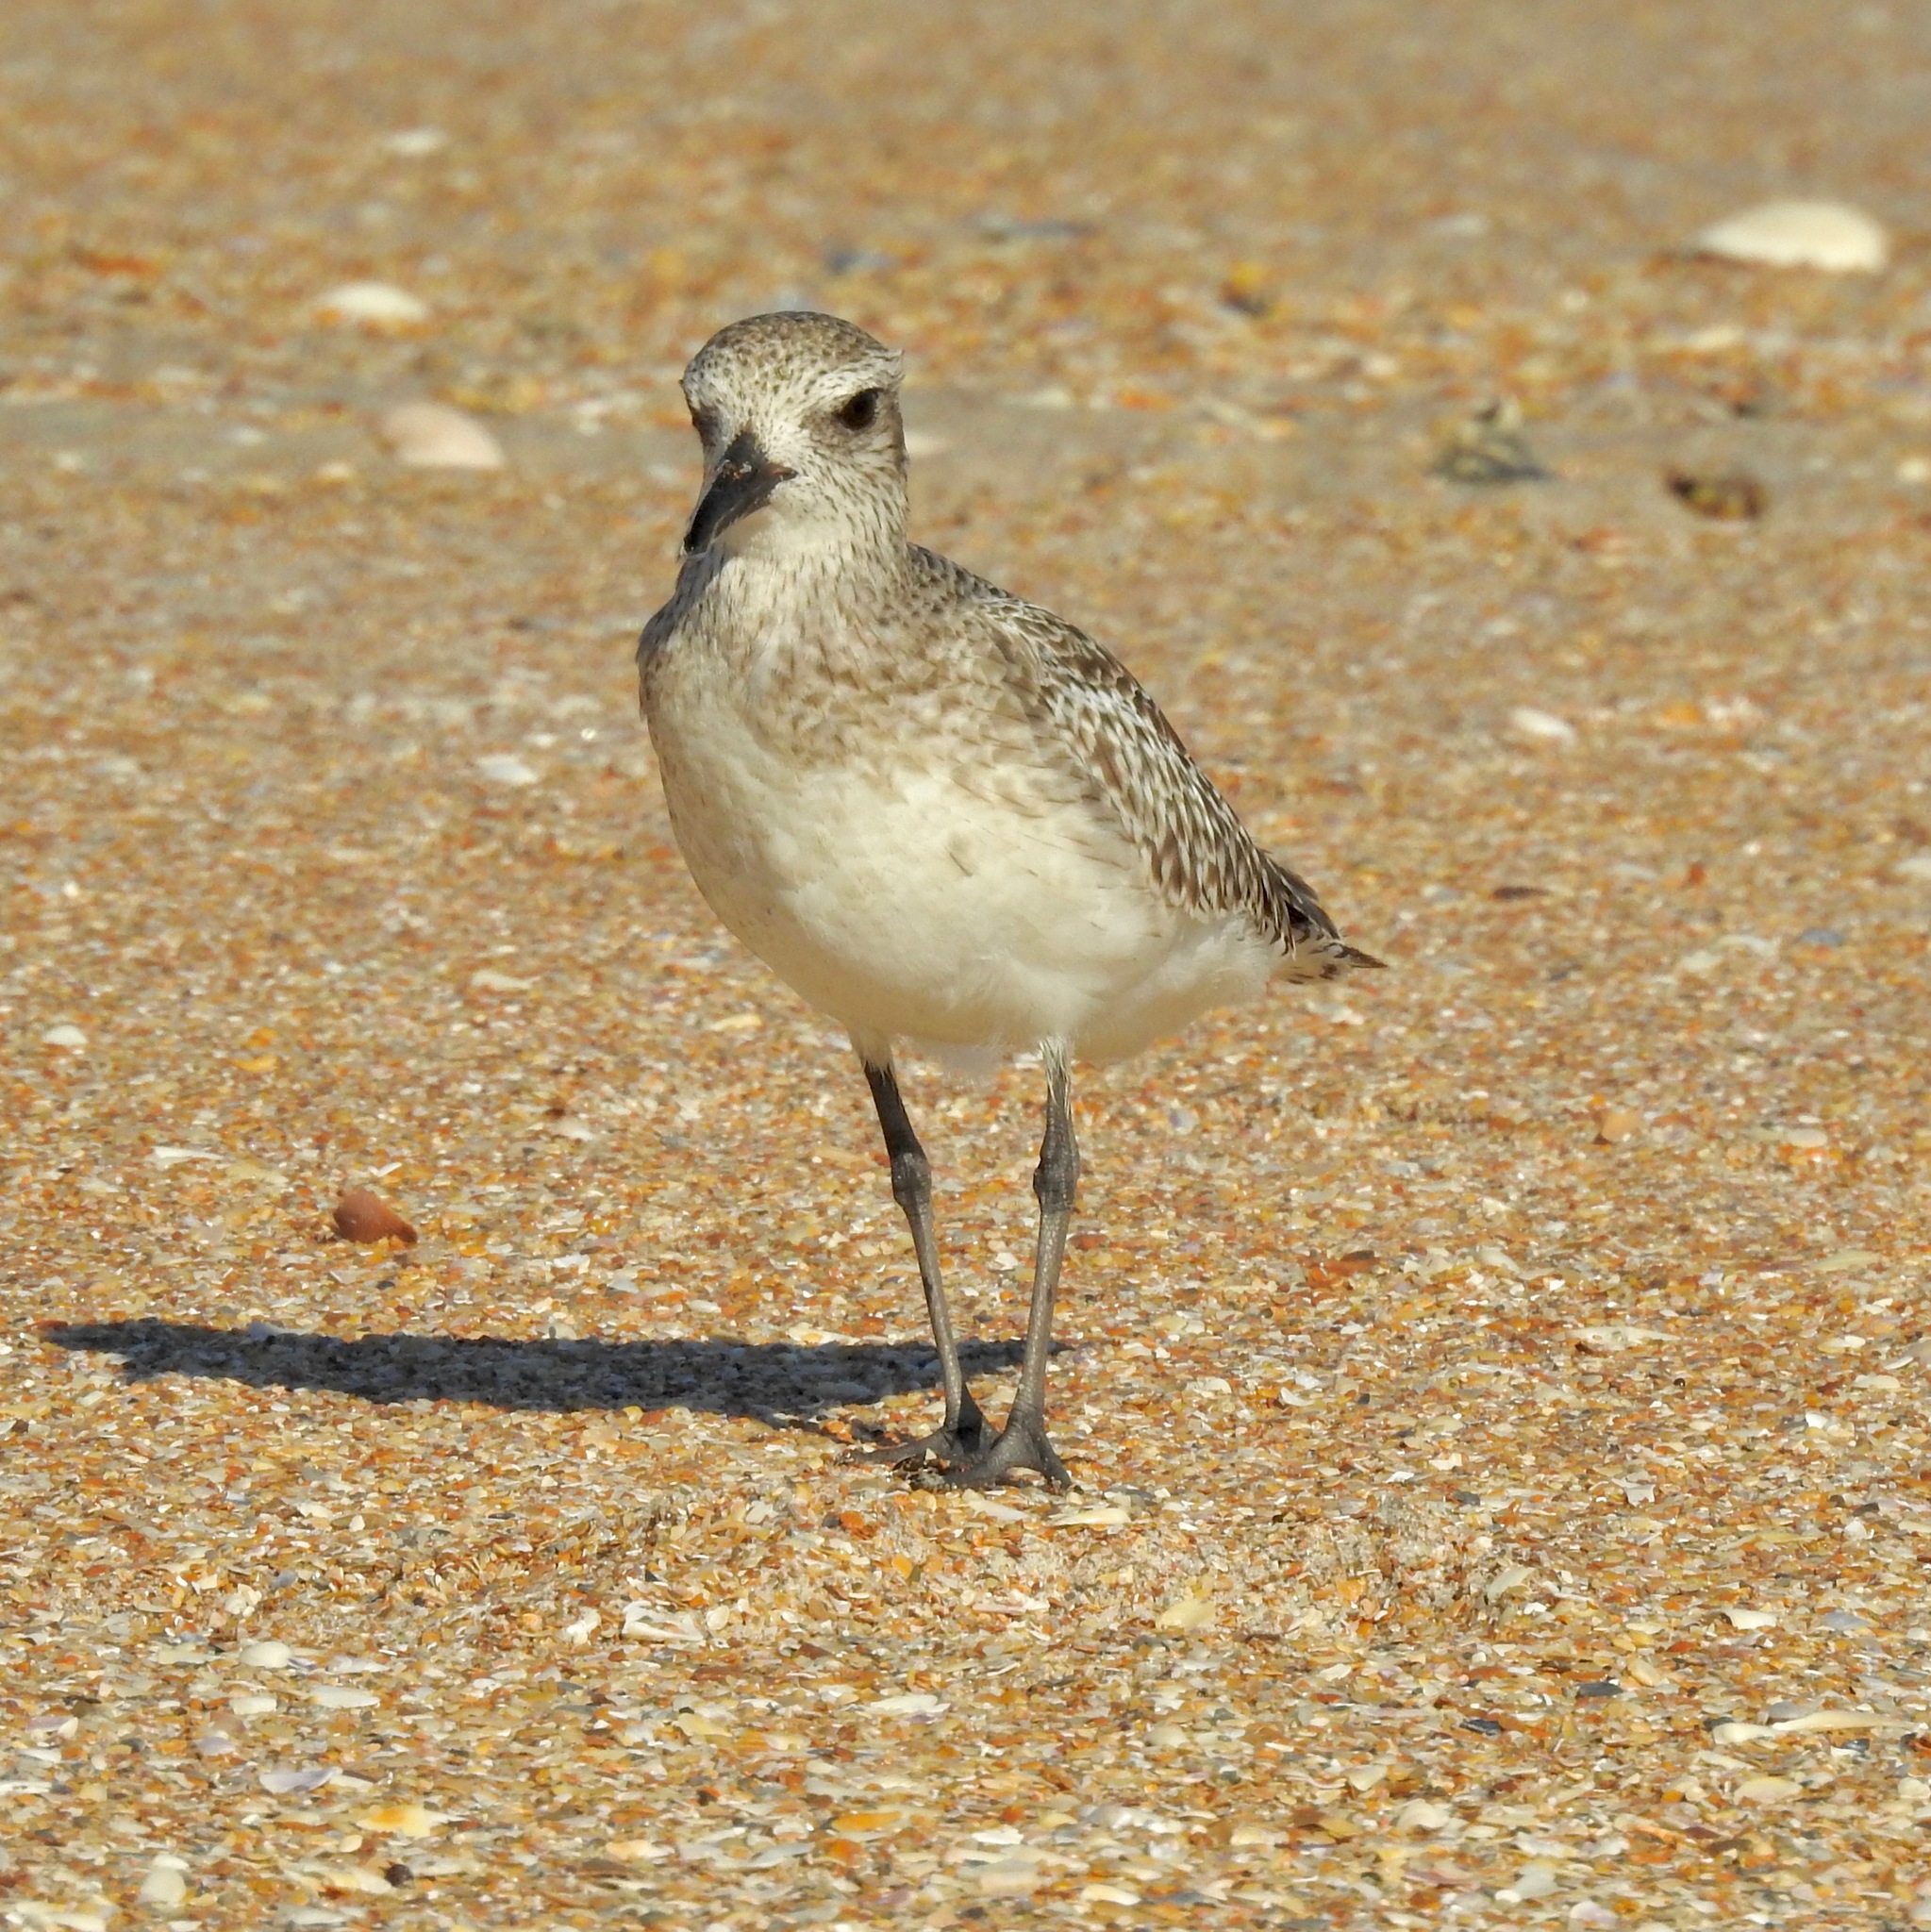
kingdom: Animalia
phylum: Chordata
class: Aves
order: Charadriiformes
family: Charadriidae
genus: Pluvialis
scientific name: Pluvialis squatarola
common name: Grey plover
